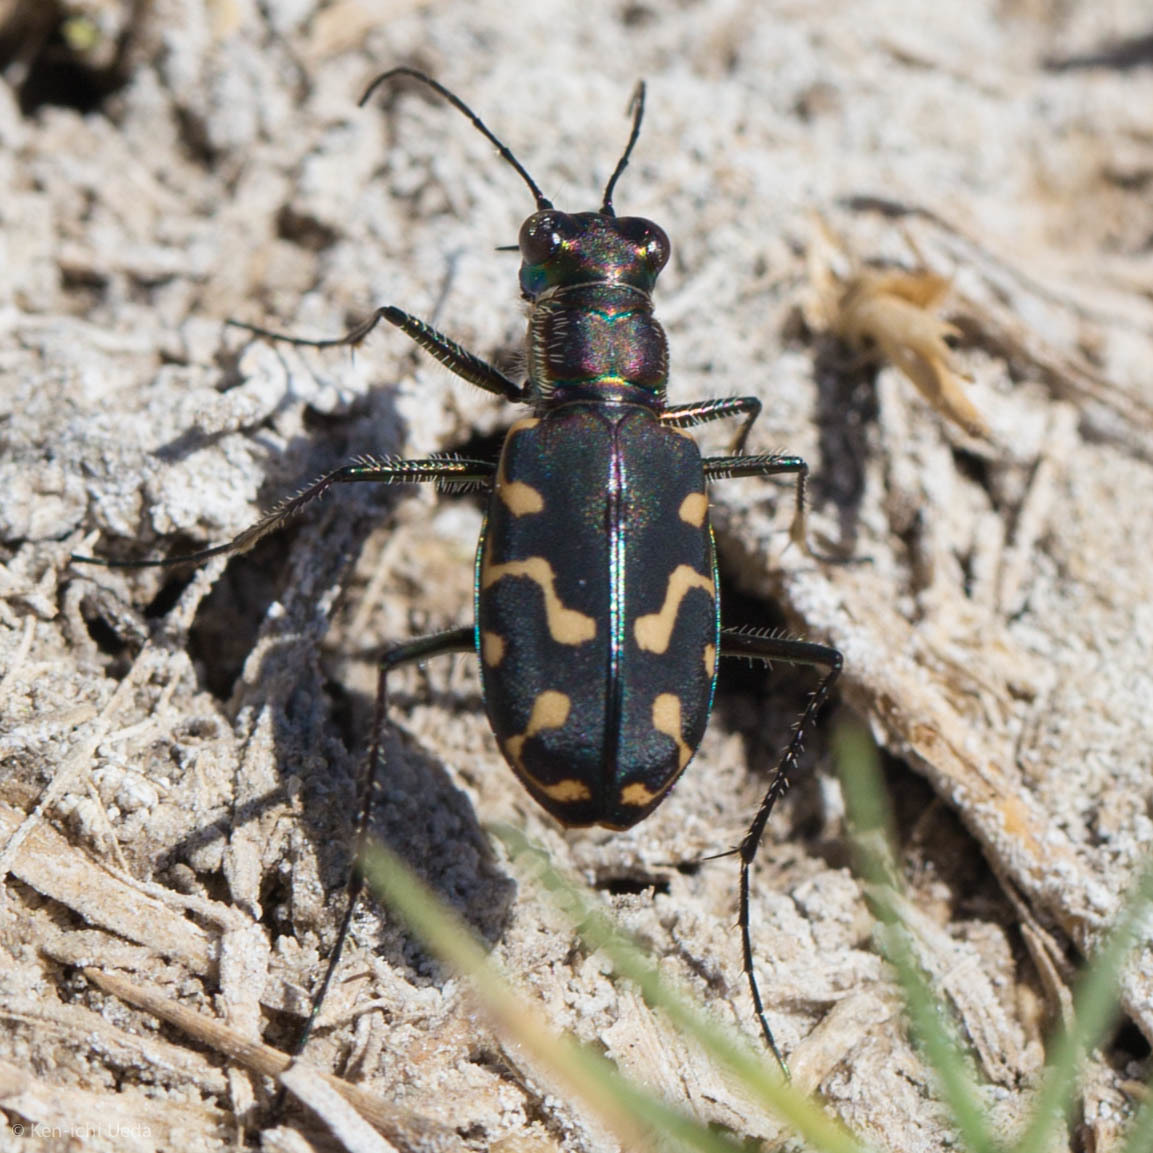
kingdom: Animalia
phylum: Arthropoda
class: Insecta
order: Coleoptera
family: Carabidae
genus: Cicindela
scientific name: Cicindela hemorrhagica
